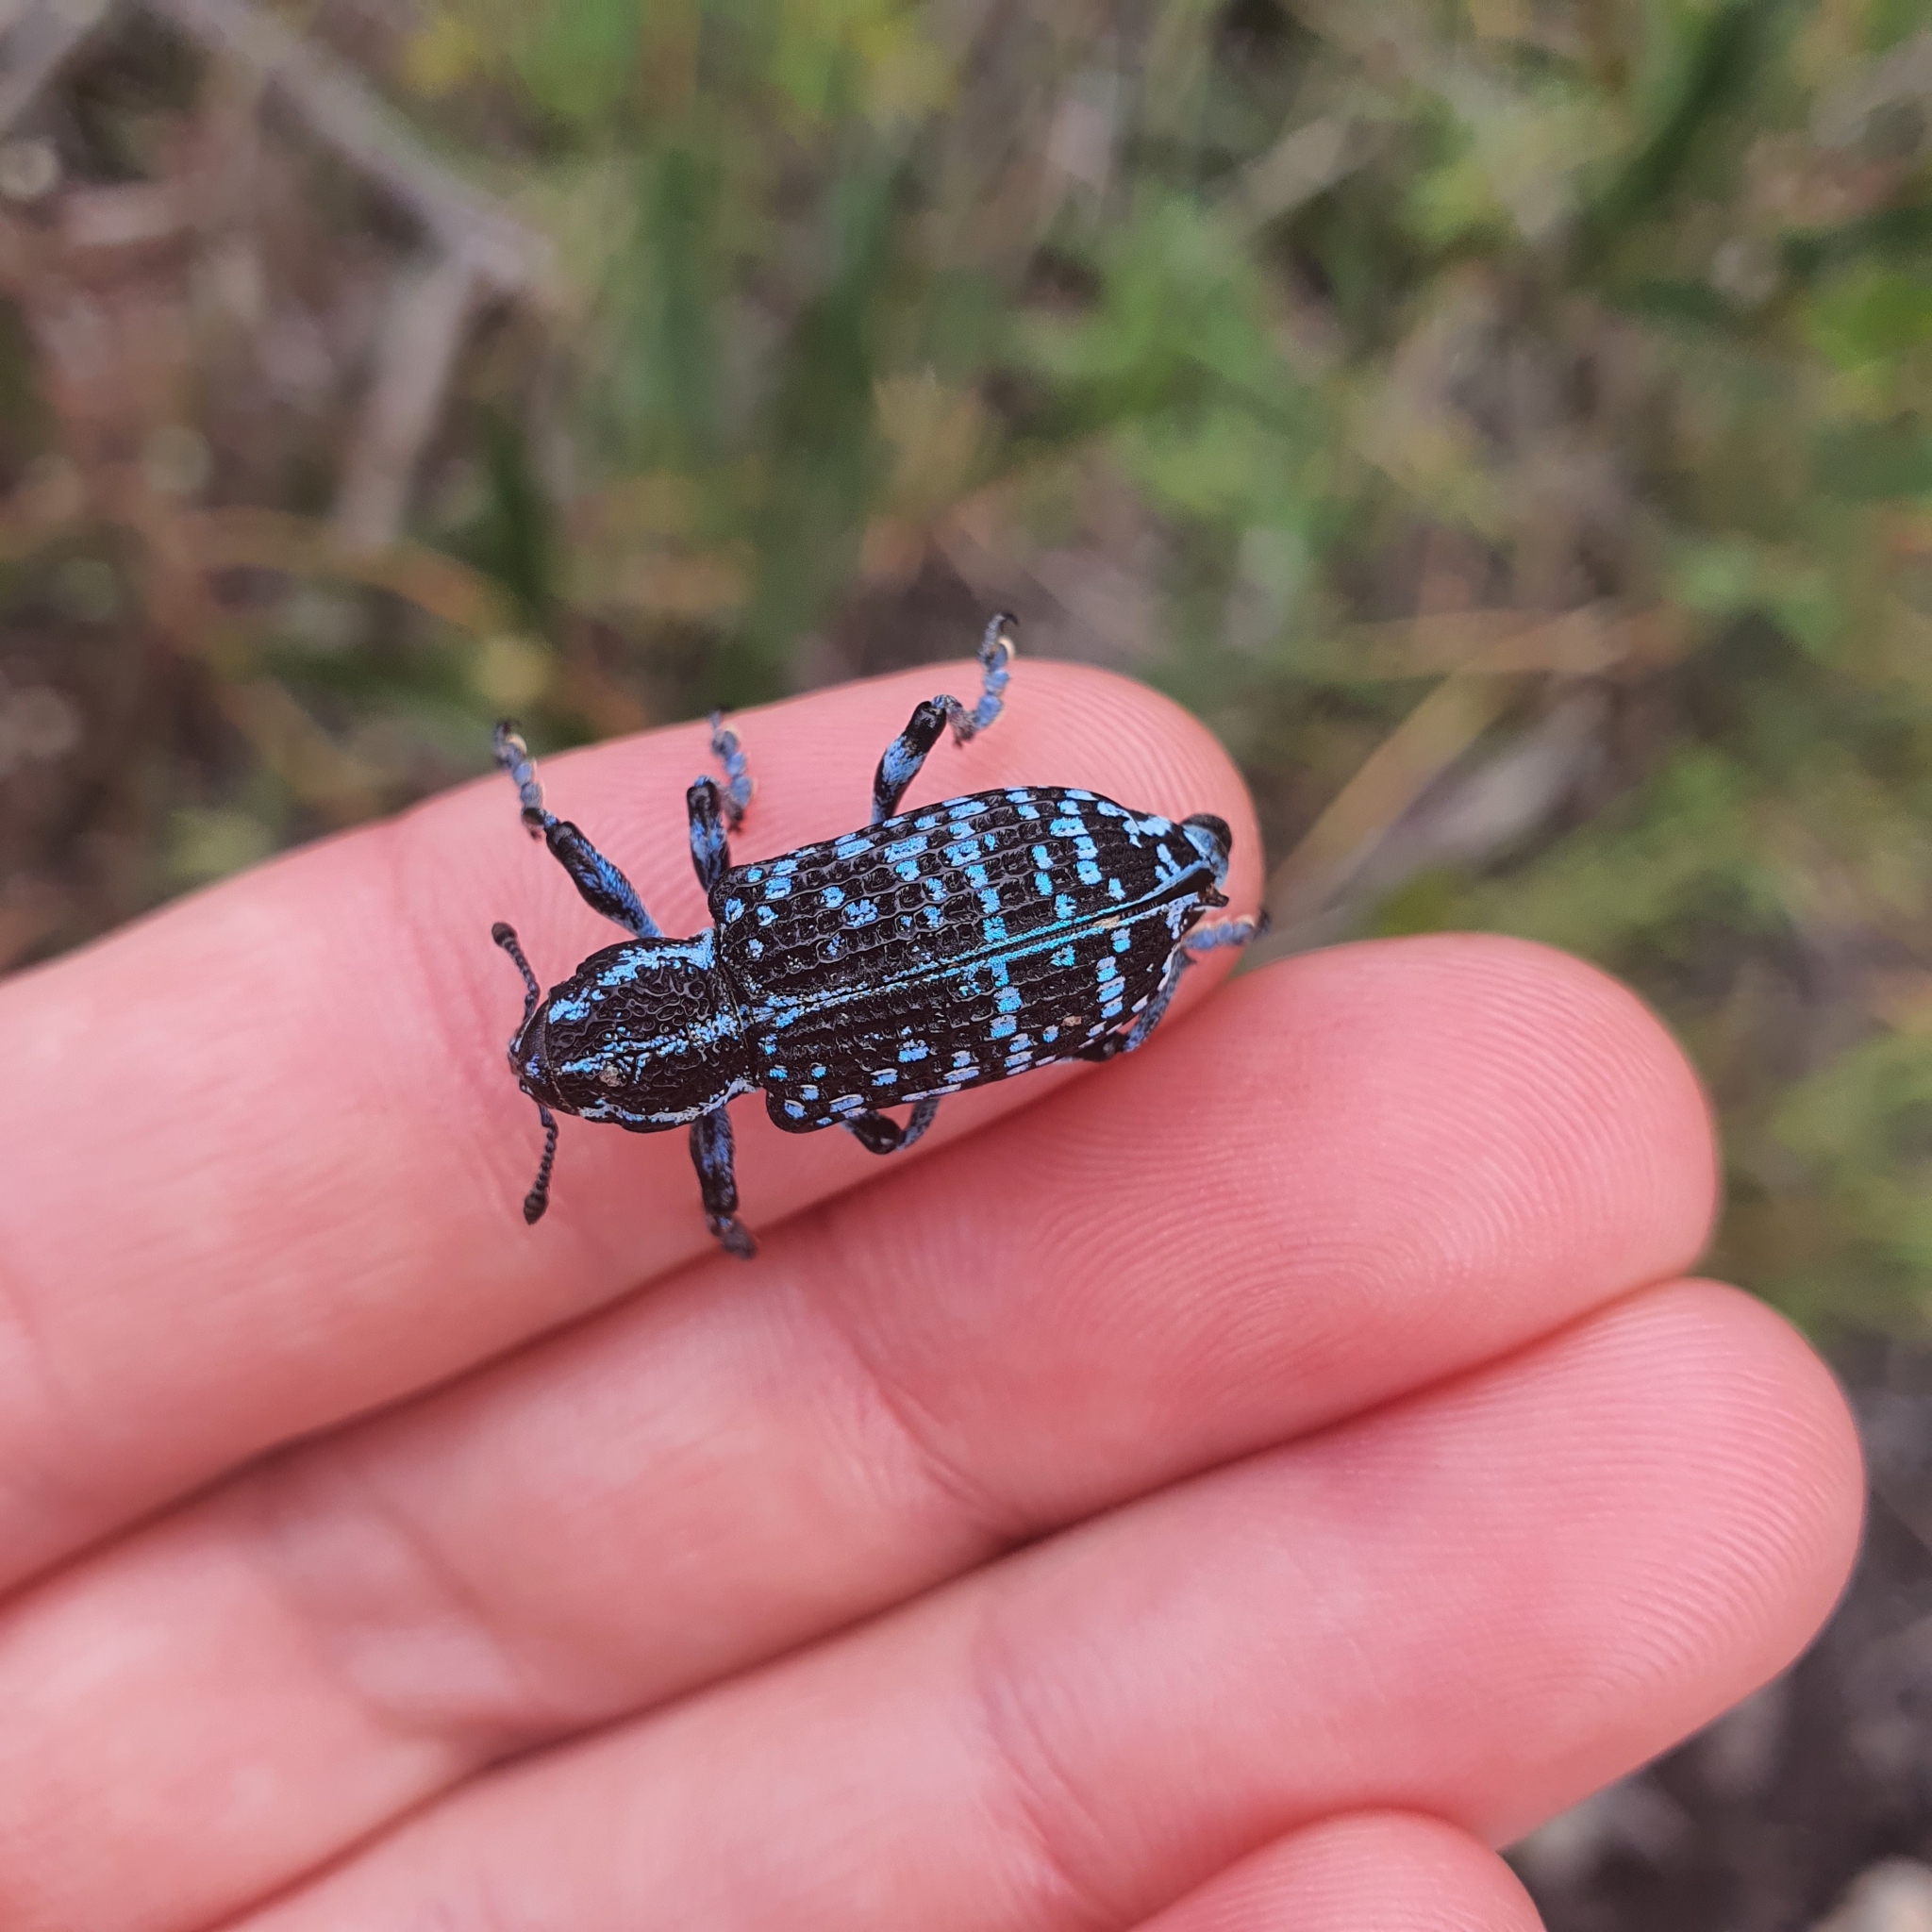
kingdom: Animalia
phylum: Arthropoda
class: Insecta
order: Coleoptera
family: Curculionidae
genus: Chrysolopus
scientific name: Chrysolopus spectabilis
